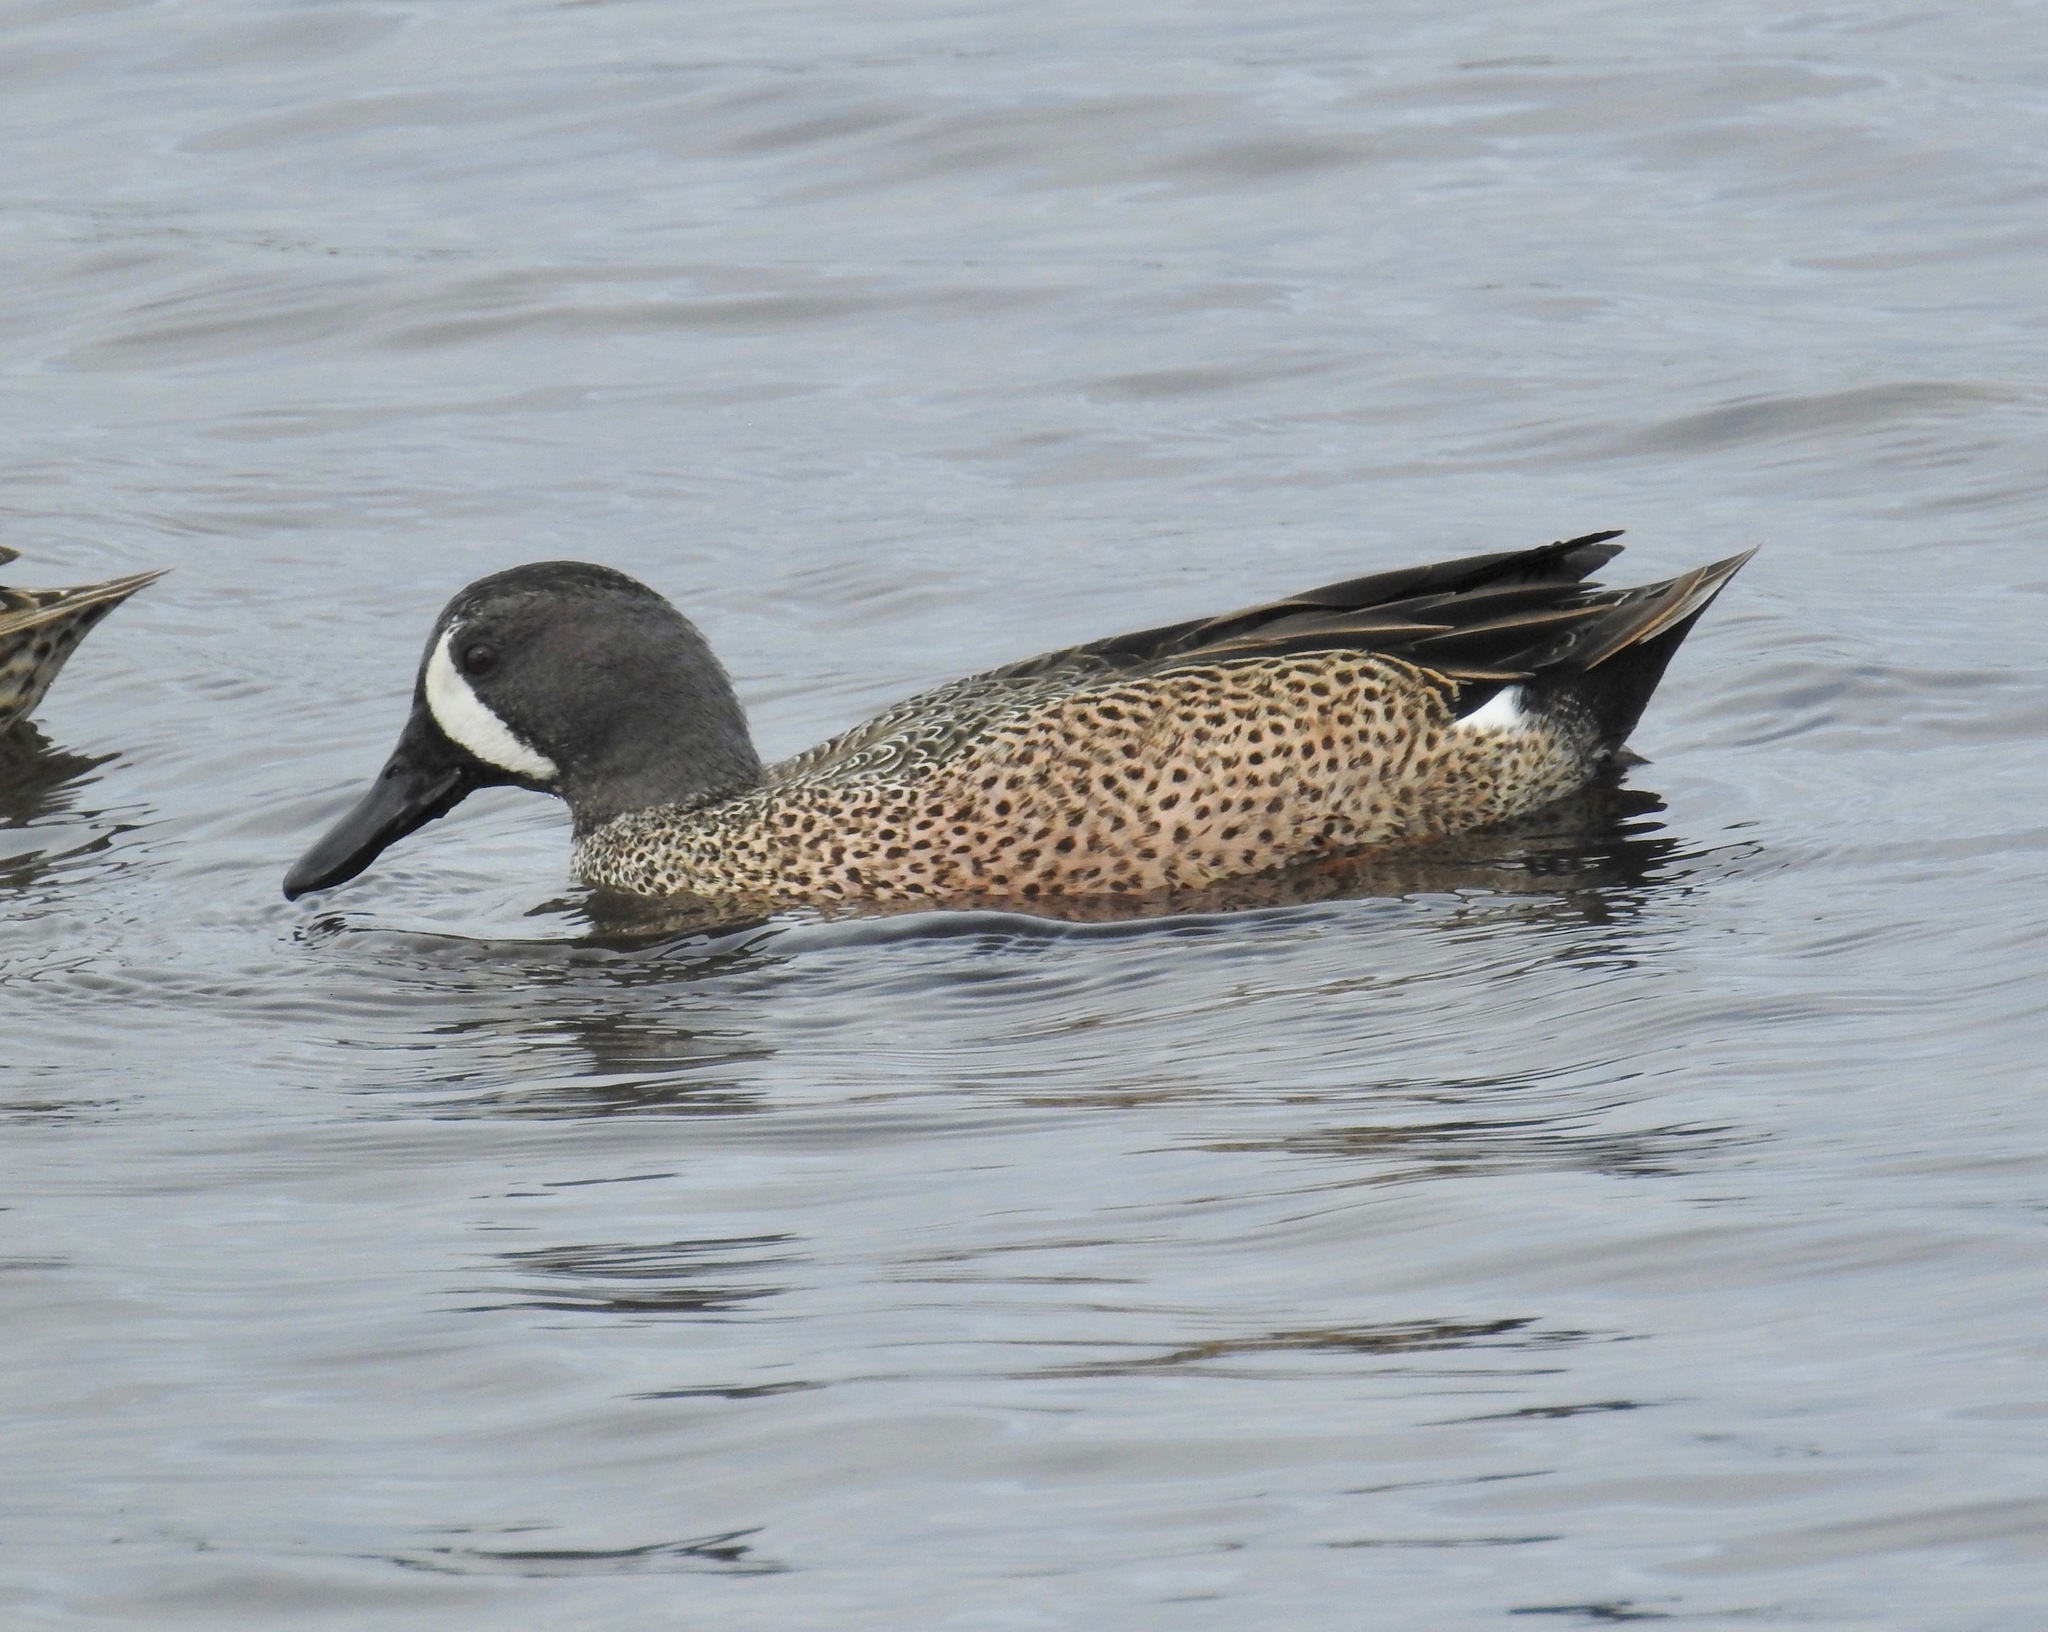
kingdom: Animalia
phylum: Chordata
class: Aves
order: Anseriformes
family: Anatidae
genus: Spatula
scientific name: Spatula discors
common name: Blue-winged teal
